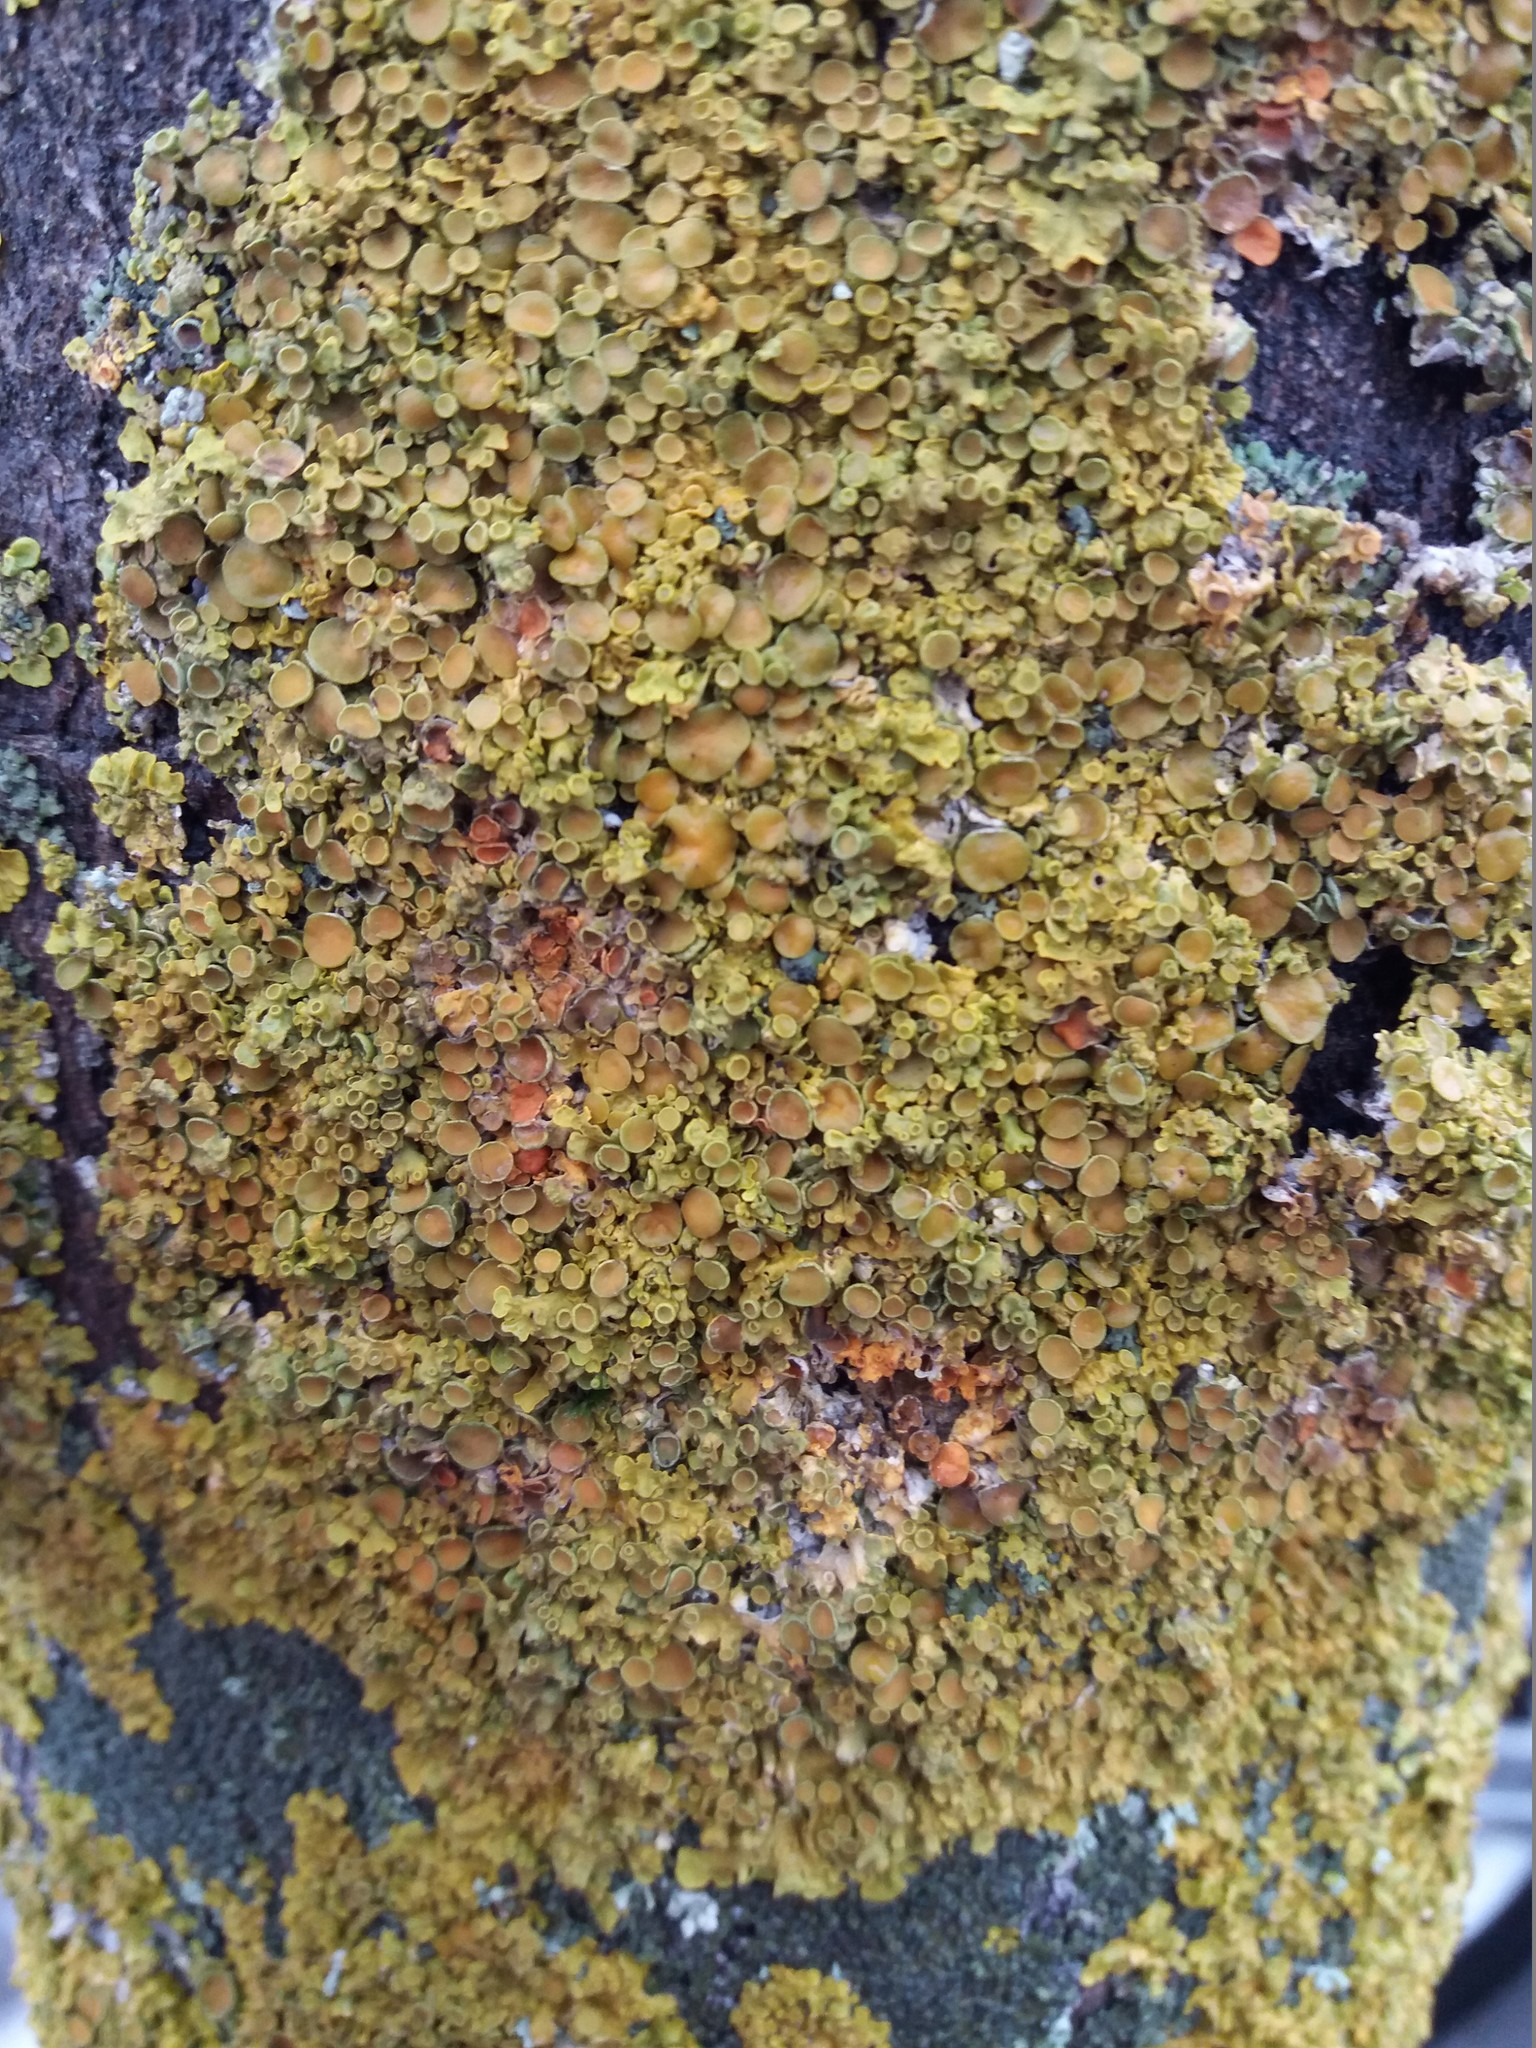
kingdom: Fungi
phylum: Ascomycota
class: Lecanoromycetes
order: Teloschistales
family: Teloschistaceae
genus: Xanthoria
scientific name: Xanthoria parietina
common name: Common orange lichen
